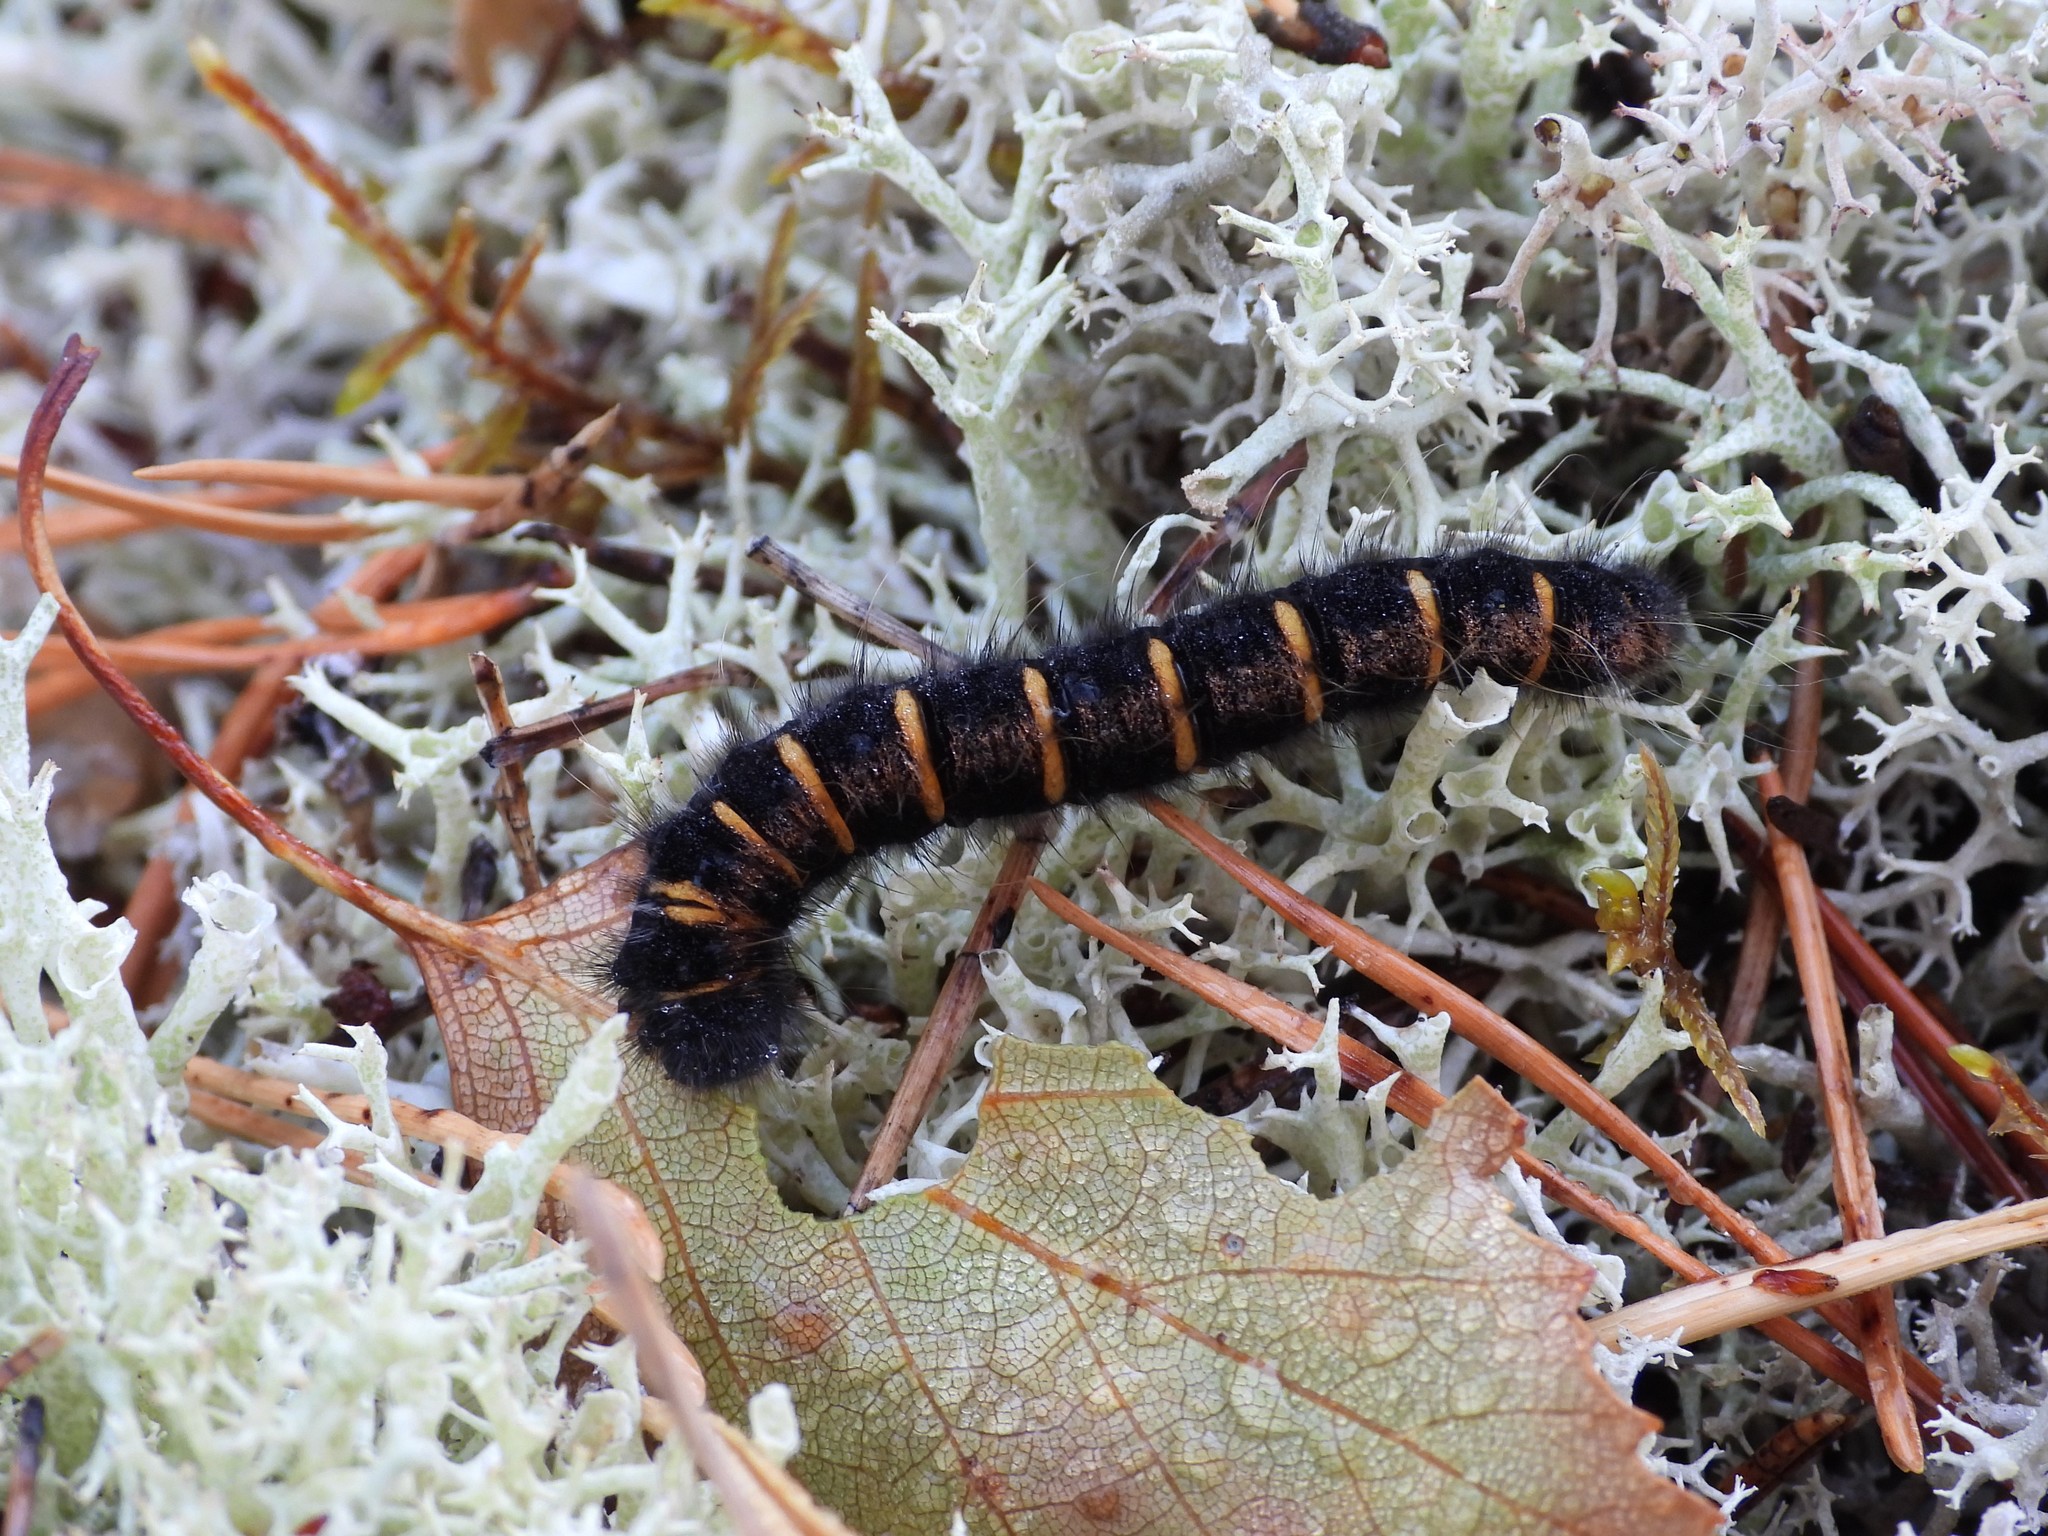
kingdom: Animalia
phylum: Arthropoda
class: Insecta
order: Lepidoptera
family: Lasiocampidae
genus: Macrothylacia
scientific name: Macrothylacia rubi
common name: Fox moth
